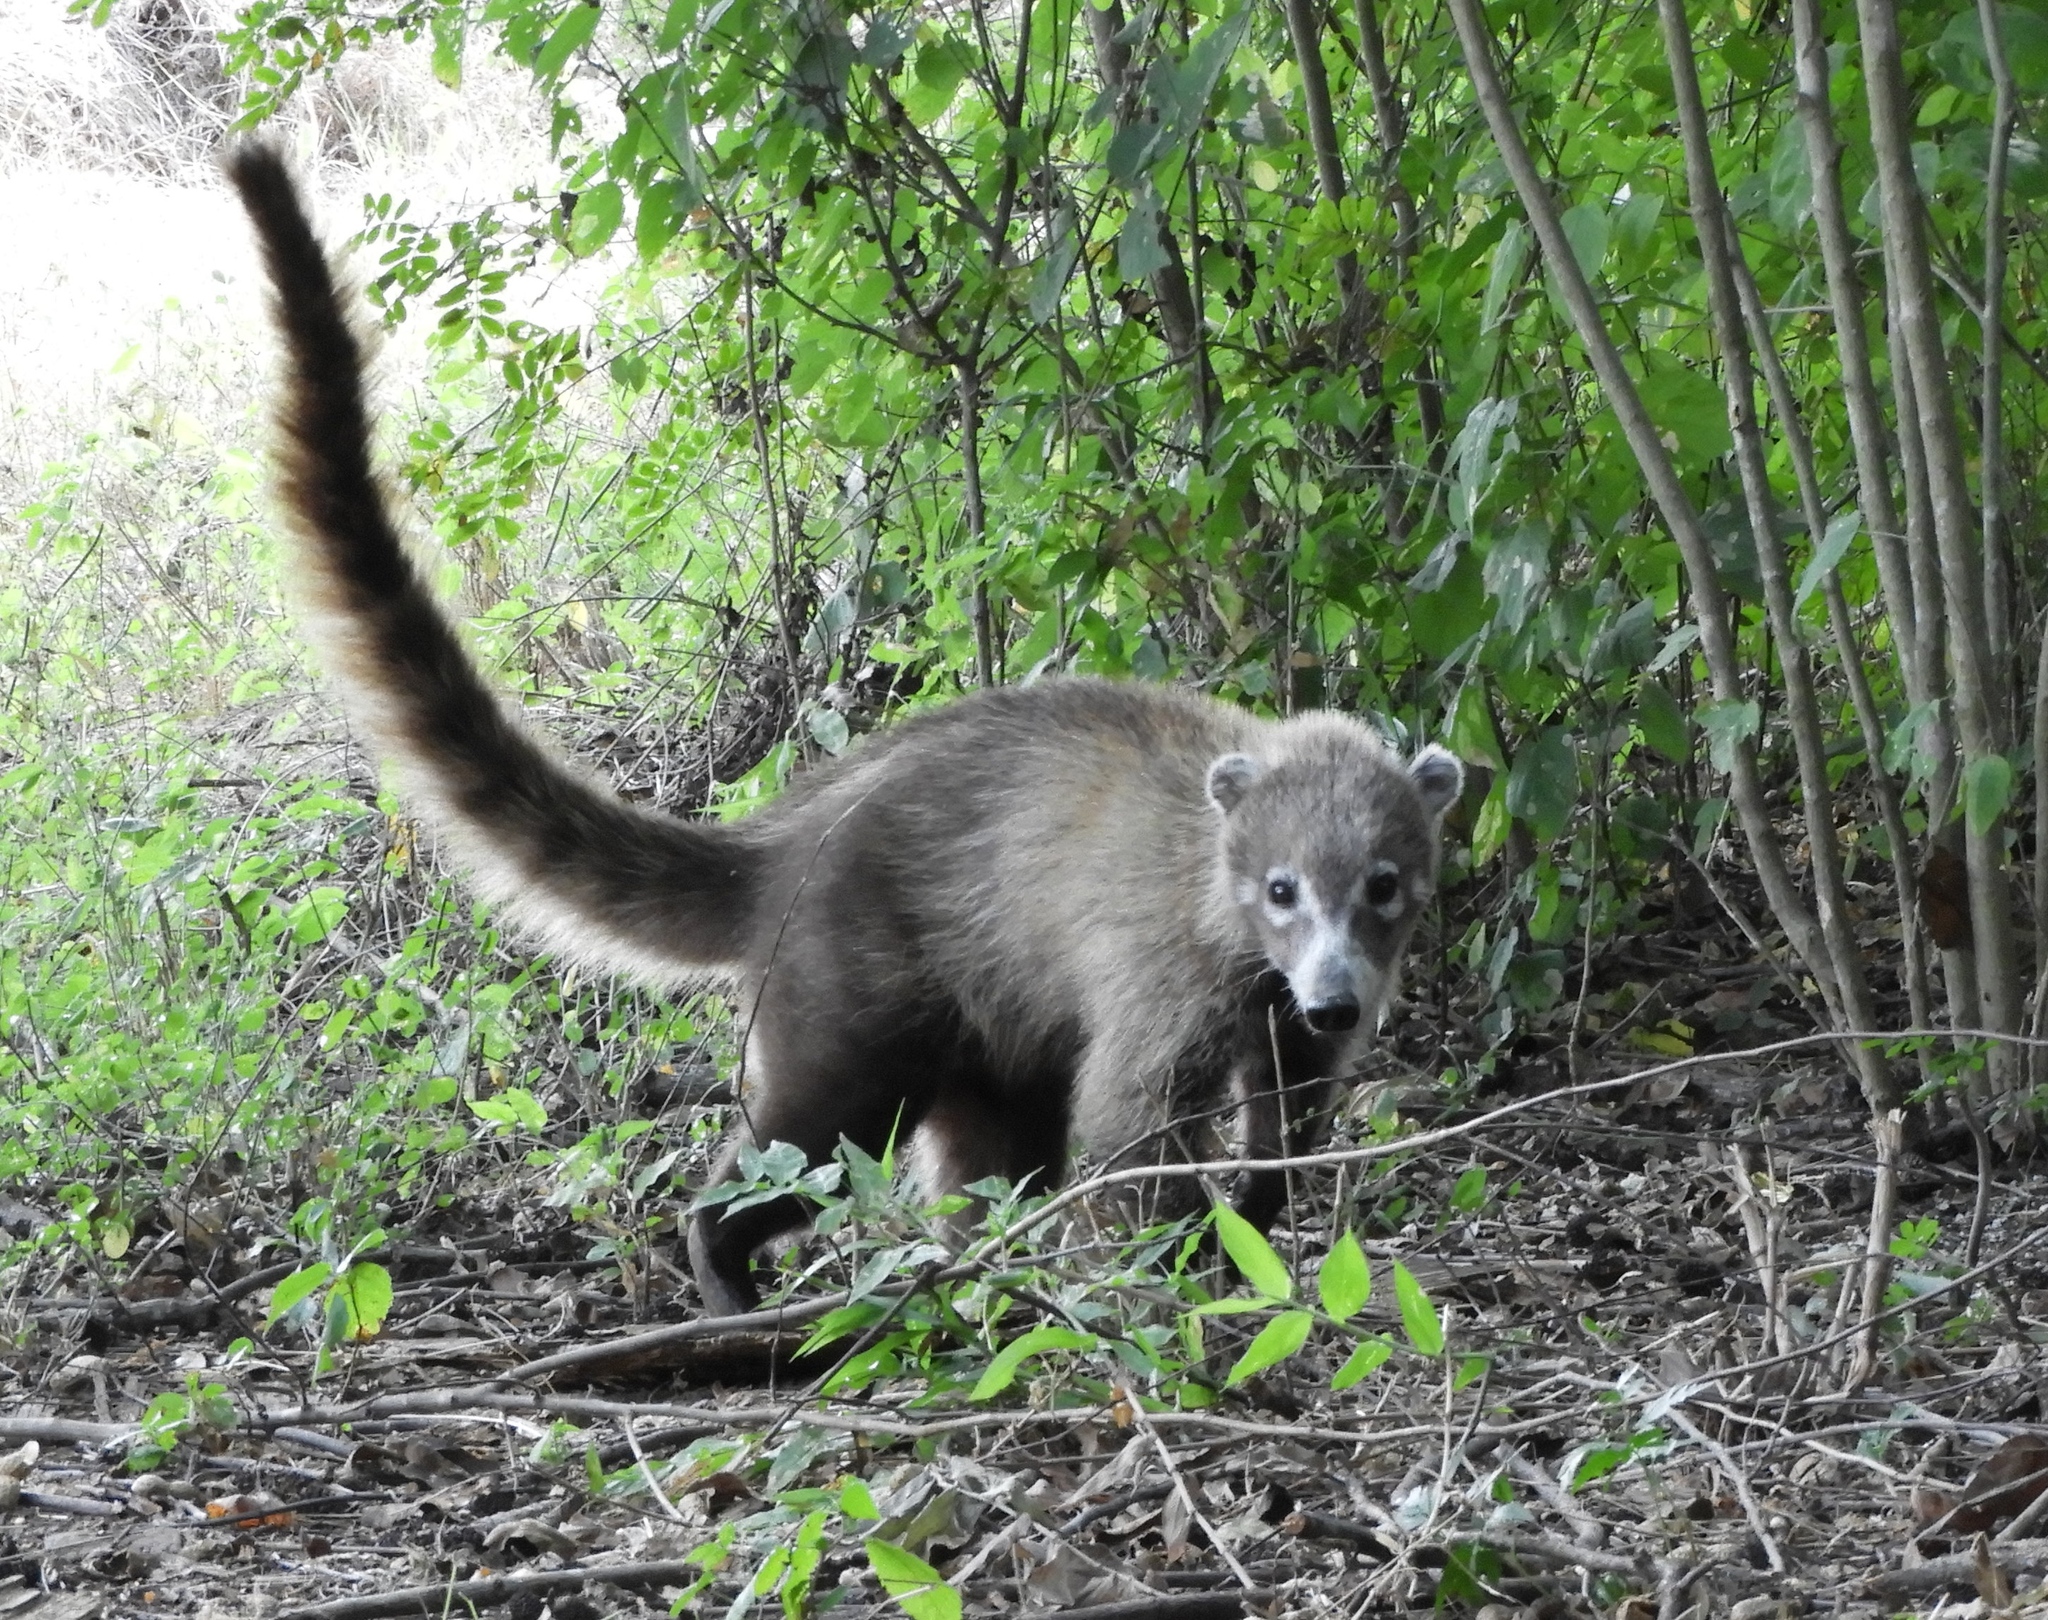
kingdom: Animalia
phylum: Chordata
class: Mammalia
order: Carnivora
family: Procyonidae
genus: Nasua
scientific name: Nasua narica
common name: White-nosed coati
